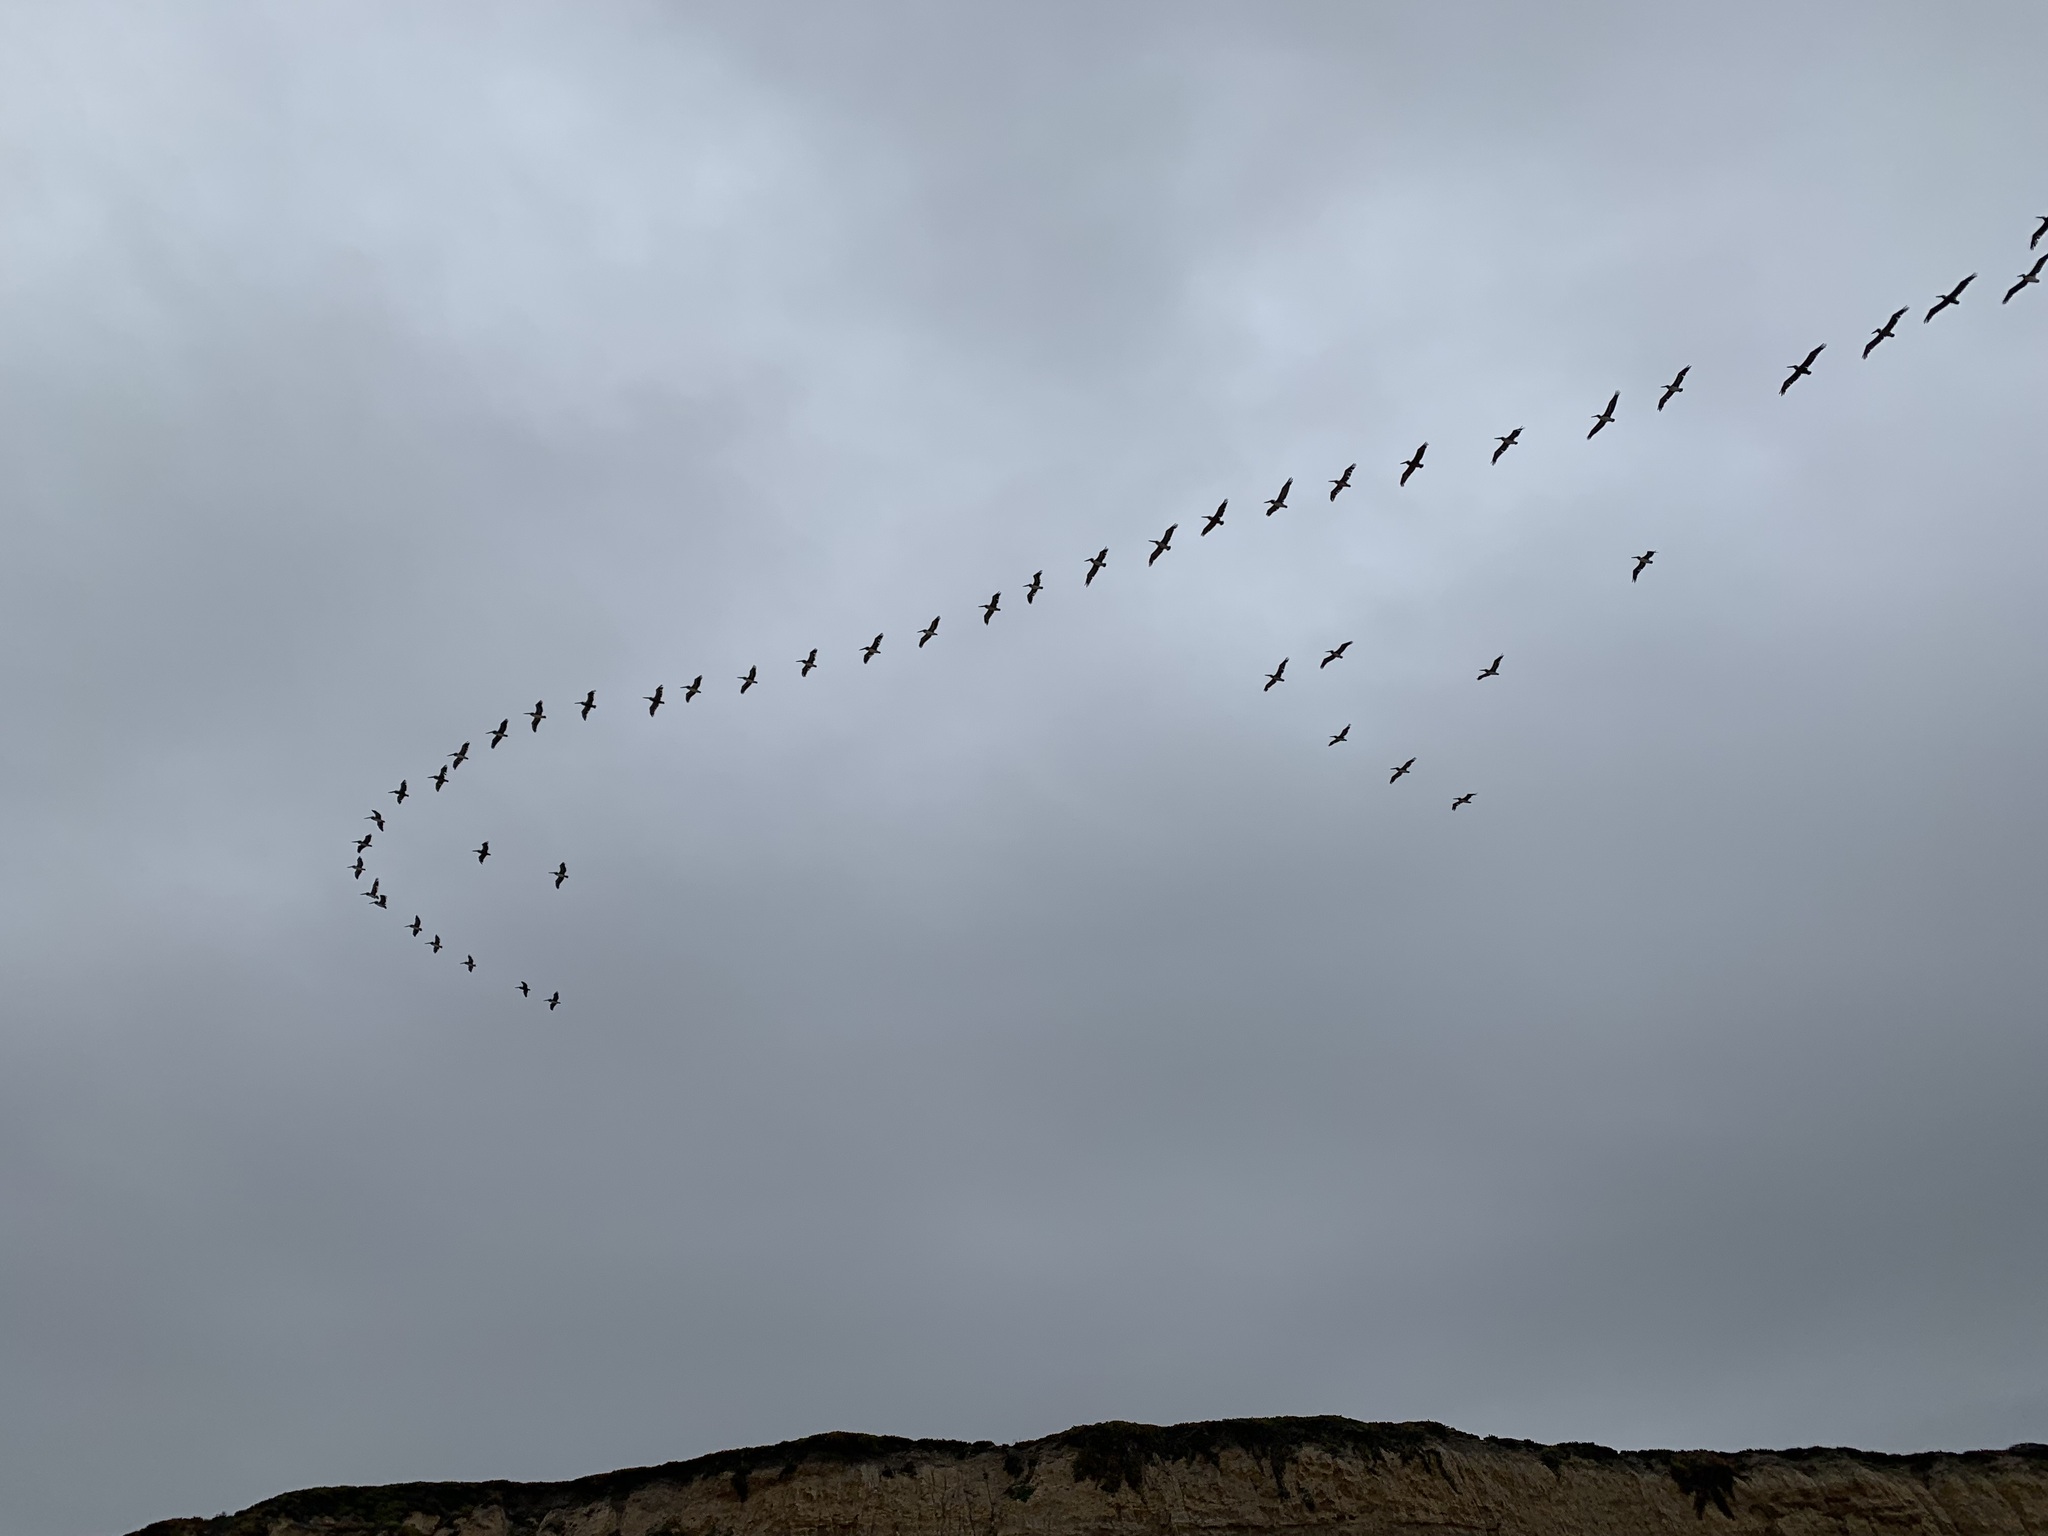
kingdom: Animalia
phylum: Chordata
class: Aves
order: Pelecaniformes
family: Pelecanidae
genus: Pelecanus
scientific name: Pelecanus occidentalis
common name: Brown pelican
